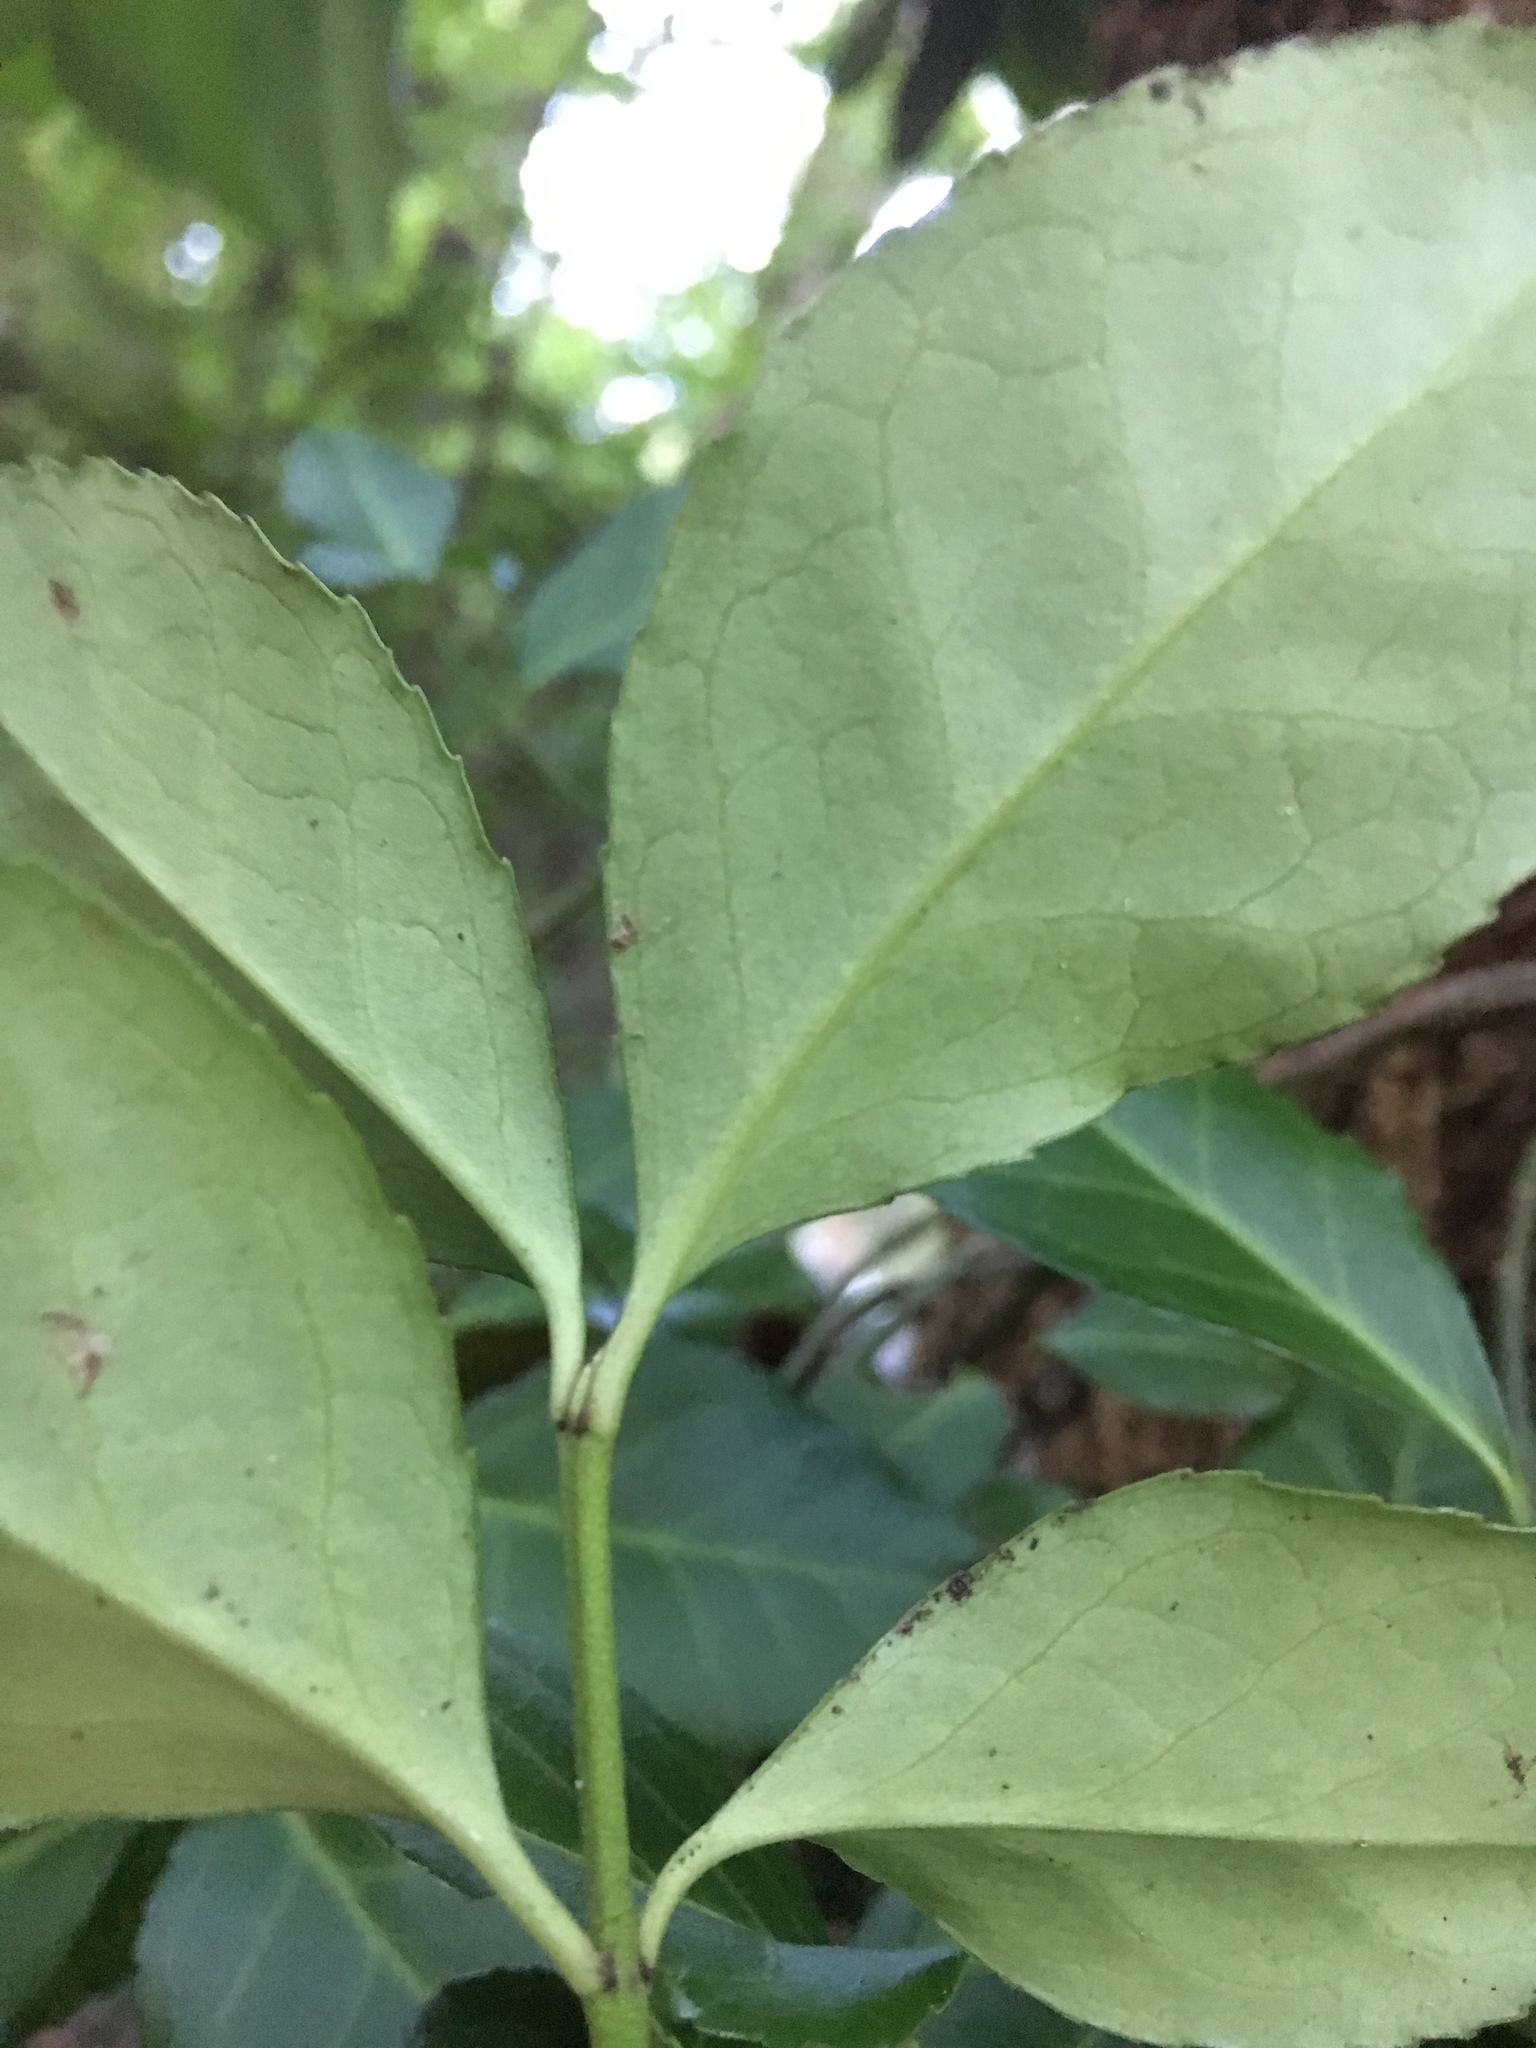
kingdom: Plantae
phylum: Tracheophyta
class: Magnoliopsida
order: Celastrales
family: Celastraceae
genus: Euonymus
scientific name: Euonymus fortunei
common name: Climbing euonymus
